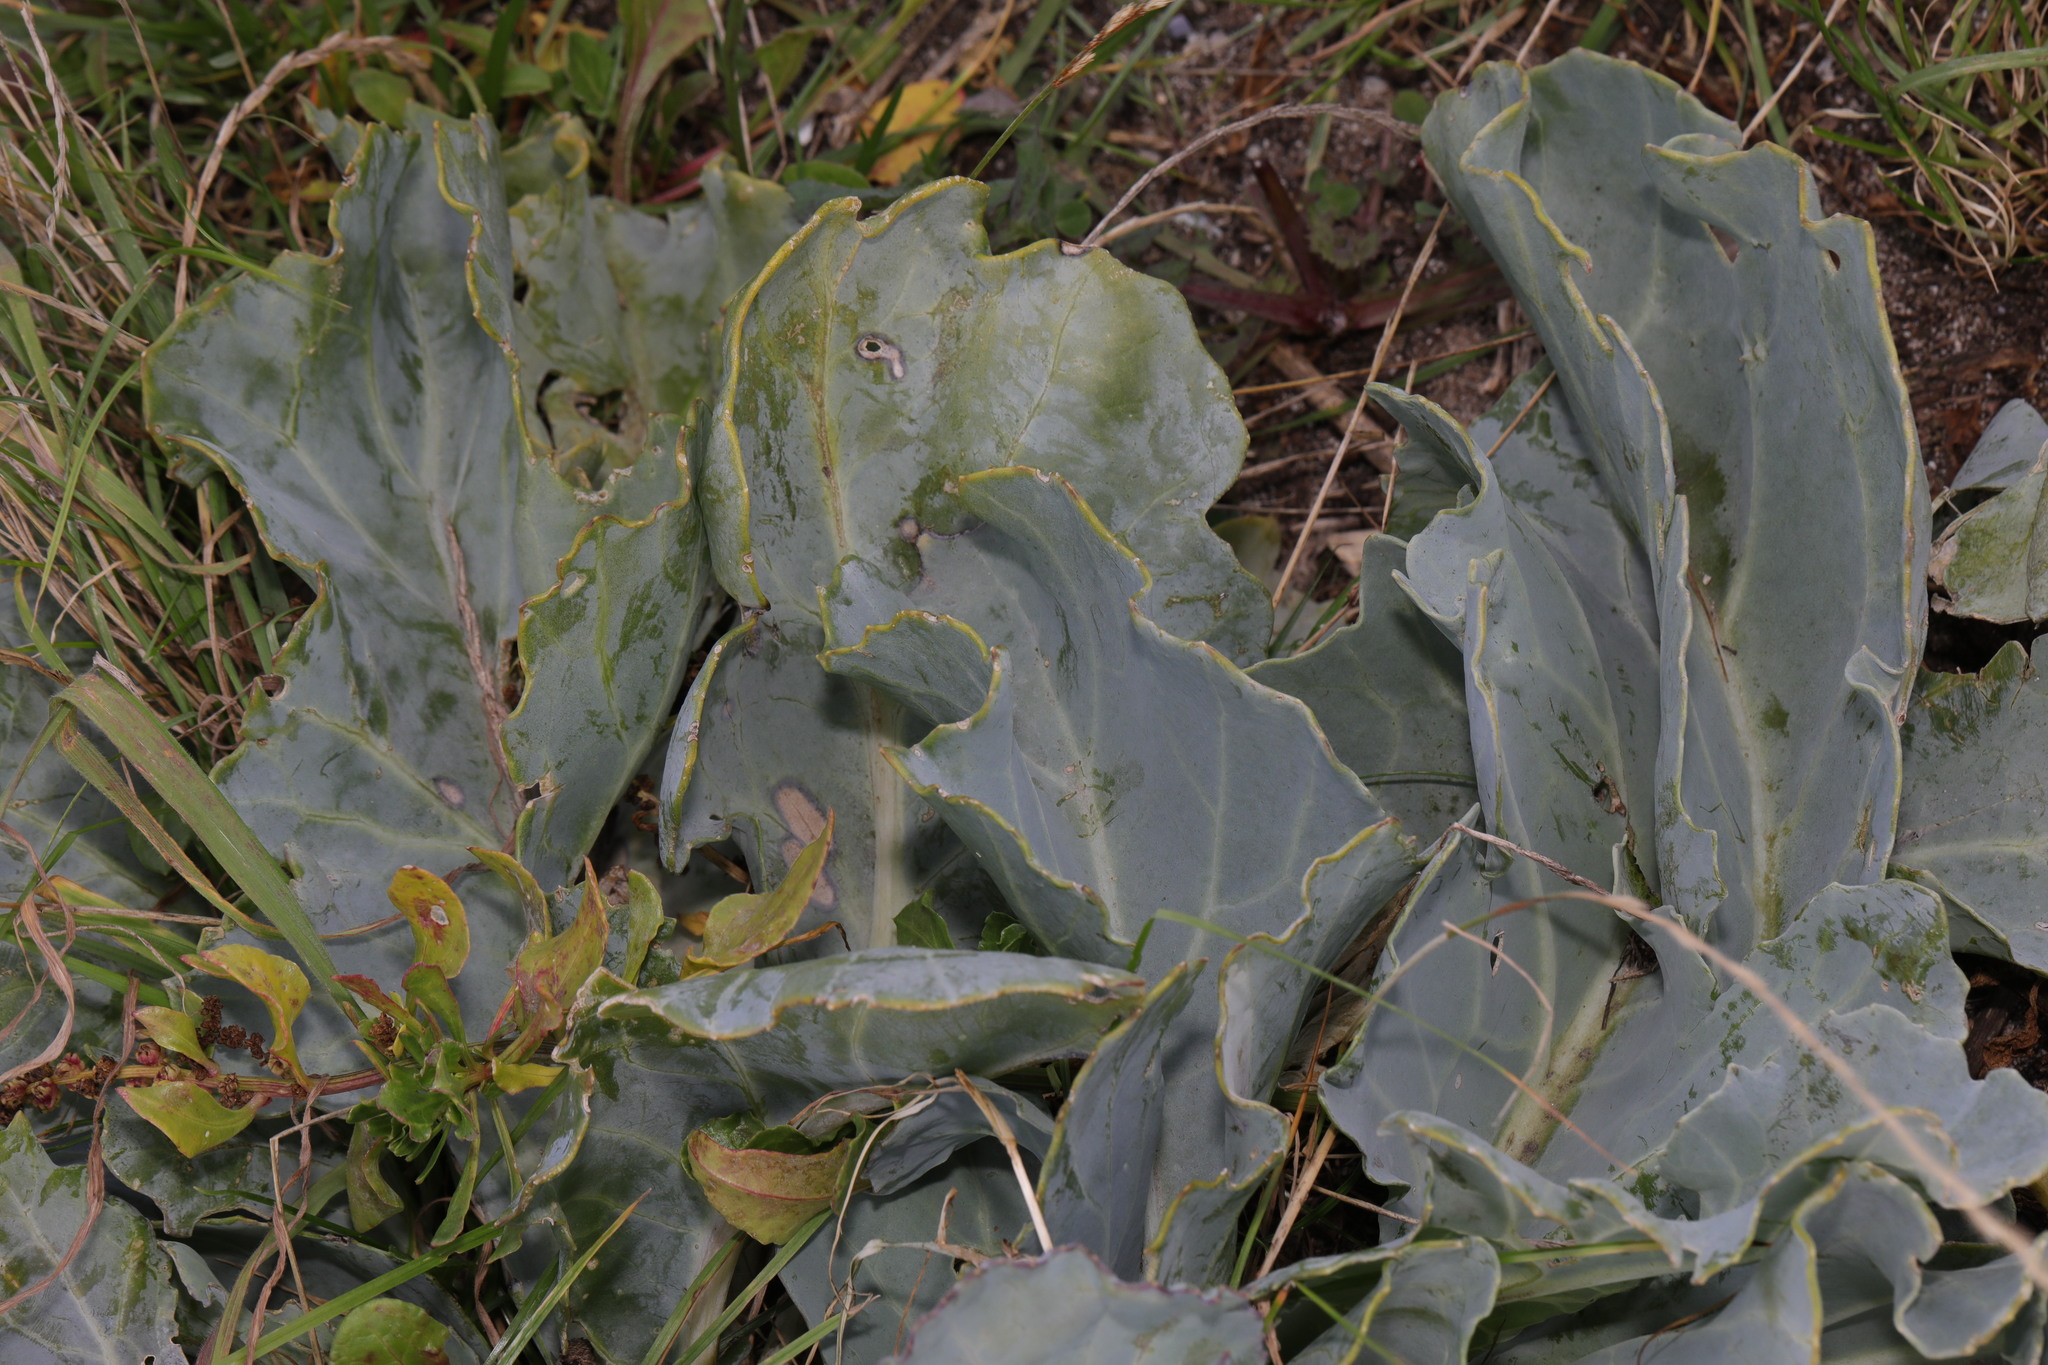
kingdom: Plantae
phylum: Tracheophyta
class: Magnoliopsida
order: Brassicales
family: Brassicaceae
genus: Crambe
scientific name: Crambe maritima
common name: Sea-kale
